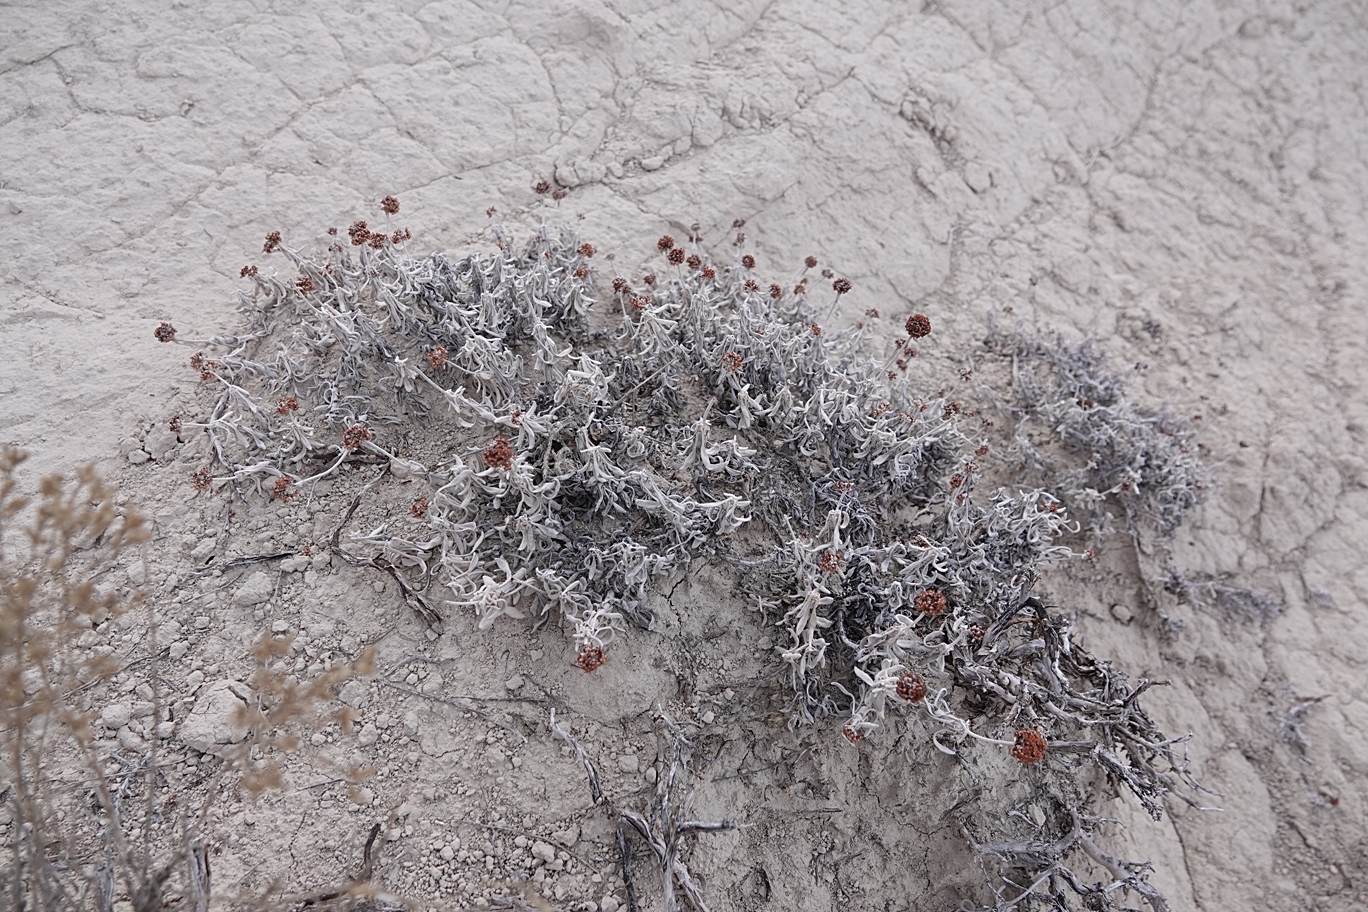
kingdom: Plantae
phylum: Tracheophyta
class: Magnoliopsida
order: Caryophyllales
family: Polygonaceae
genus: Eriogonum
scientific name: Eriogonum pauciflorum
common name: Few-flower wild buckwheat
